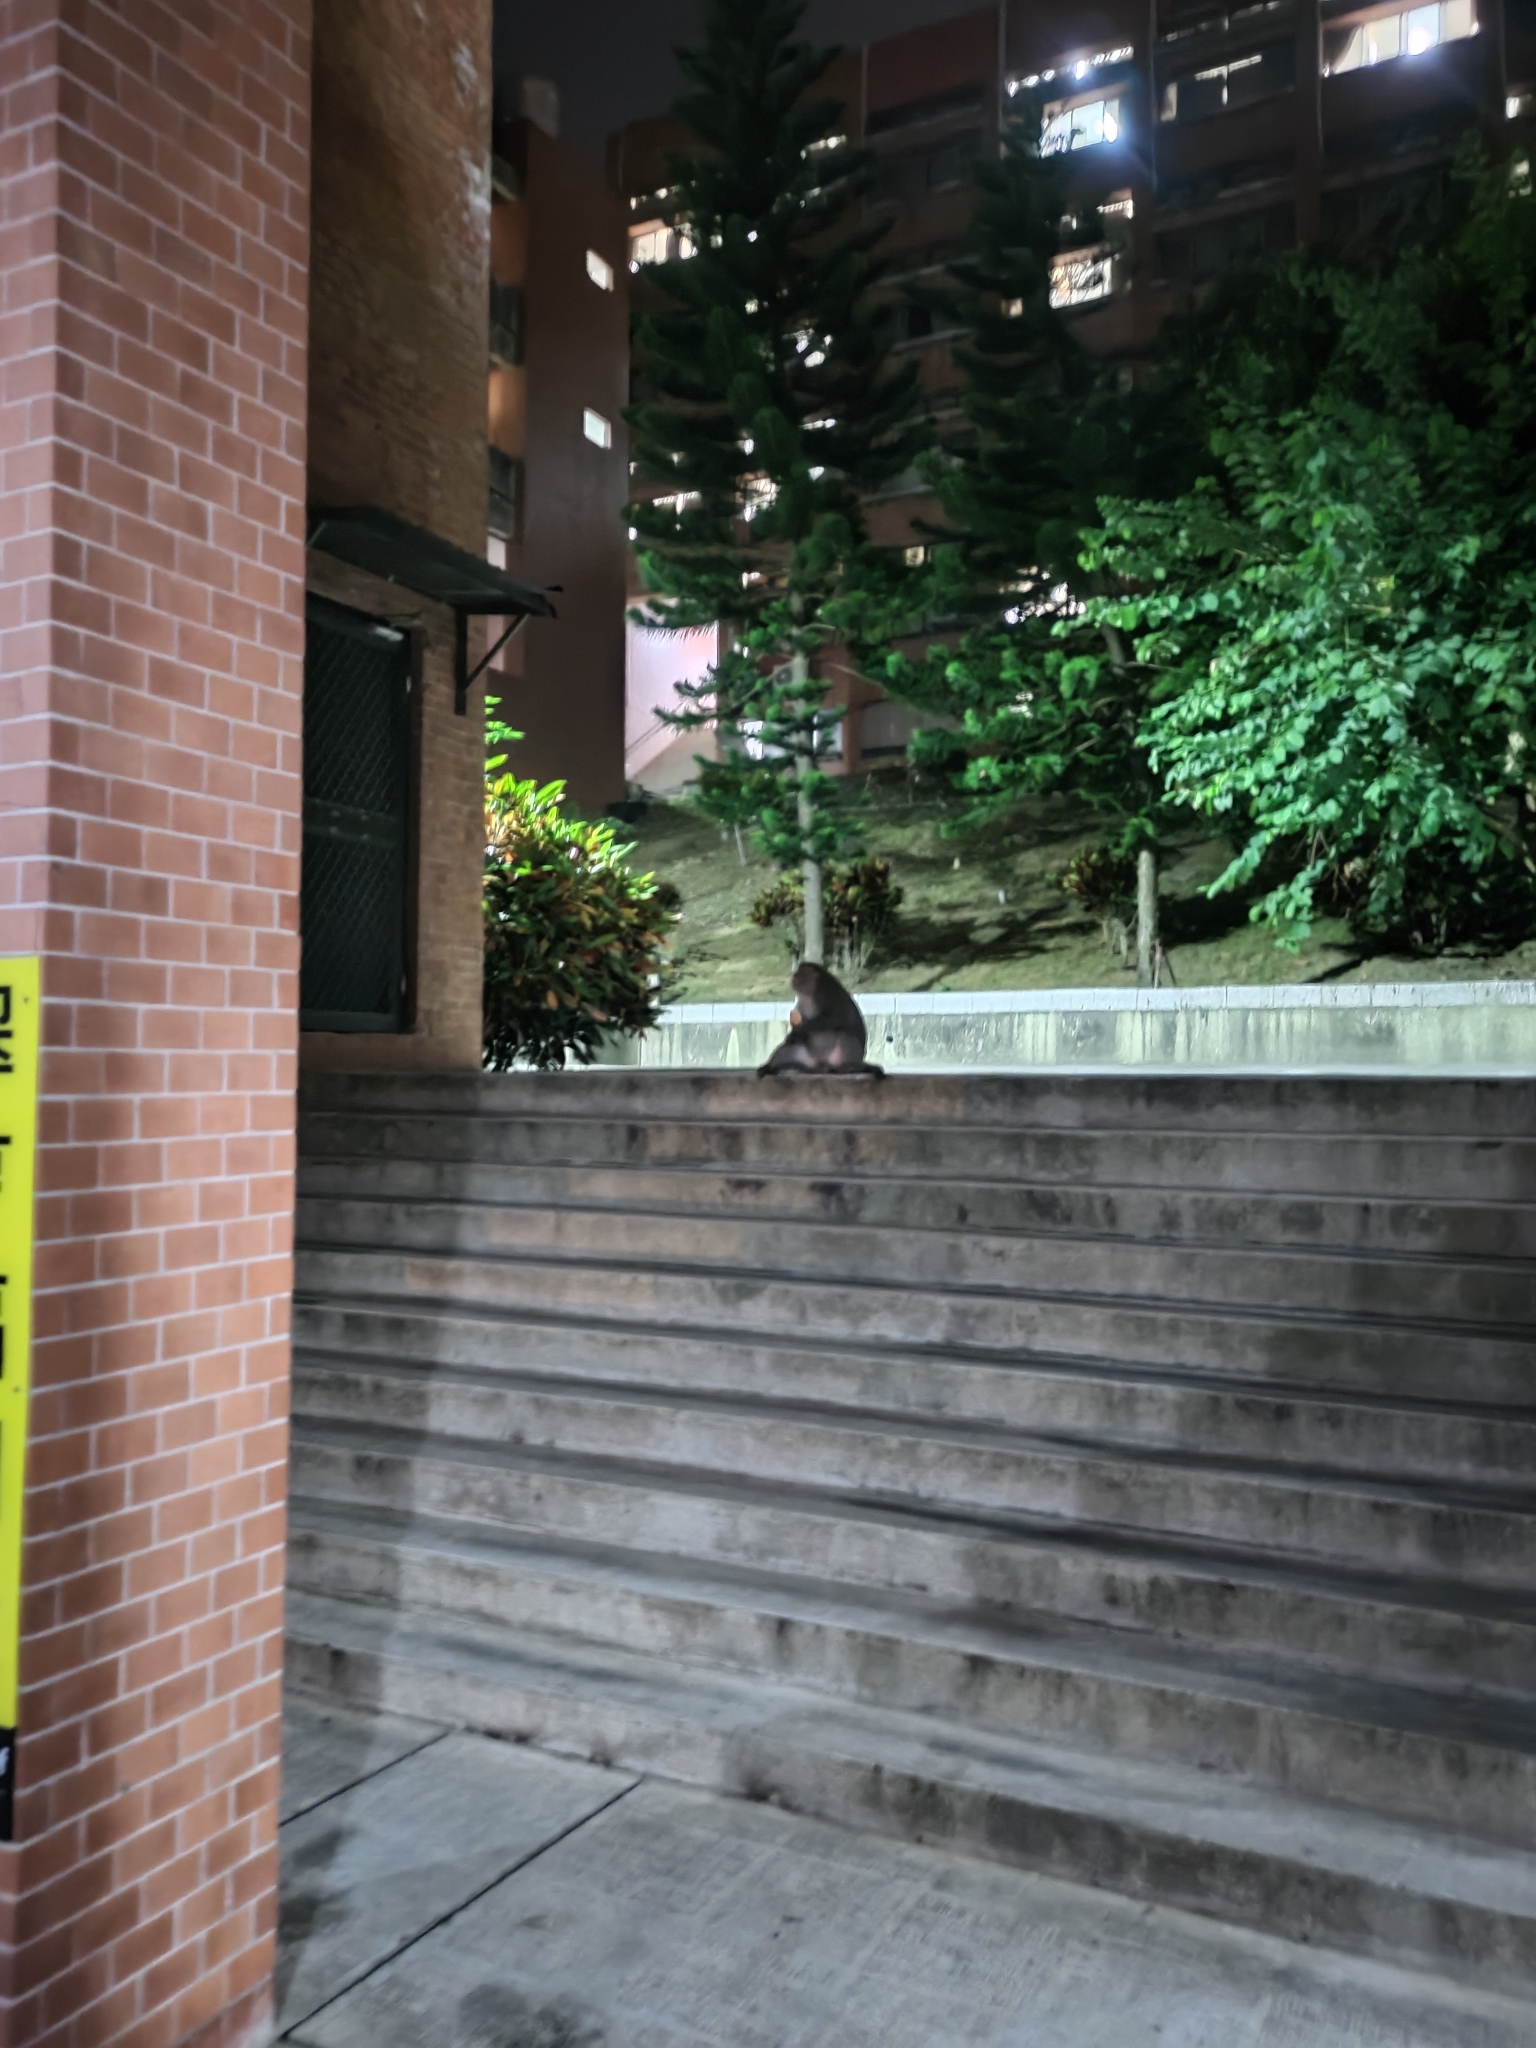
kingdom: Animalia
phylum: Chordata
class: Mammalia
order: Primates
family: Cercopithecidae
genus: Macaca
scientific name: Macaca cyclopis
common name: Formosan rock macaque
